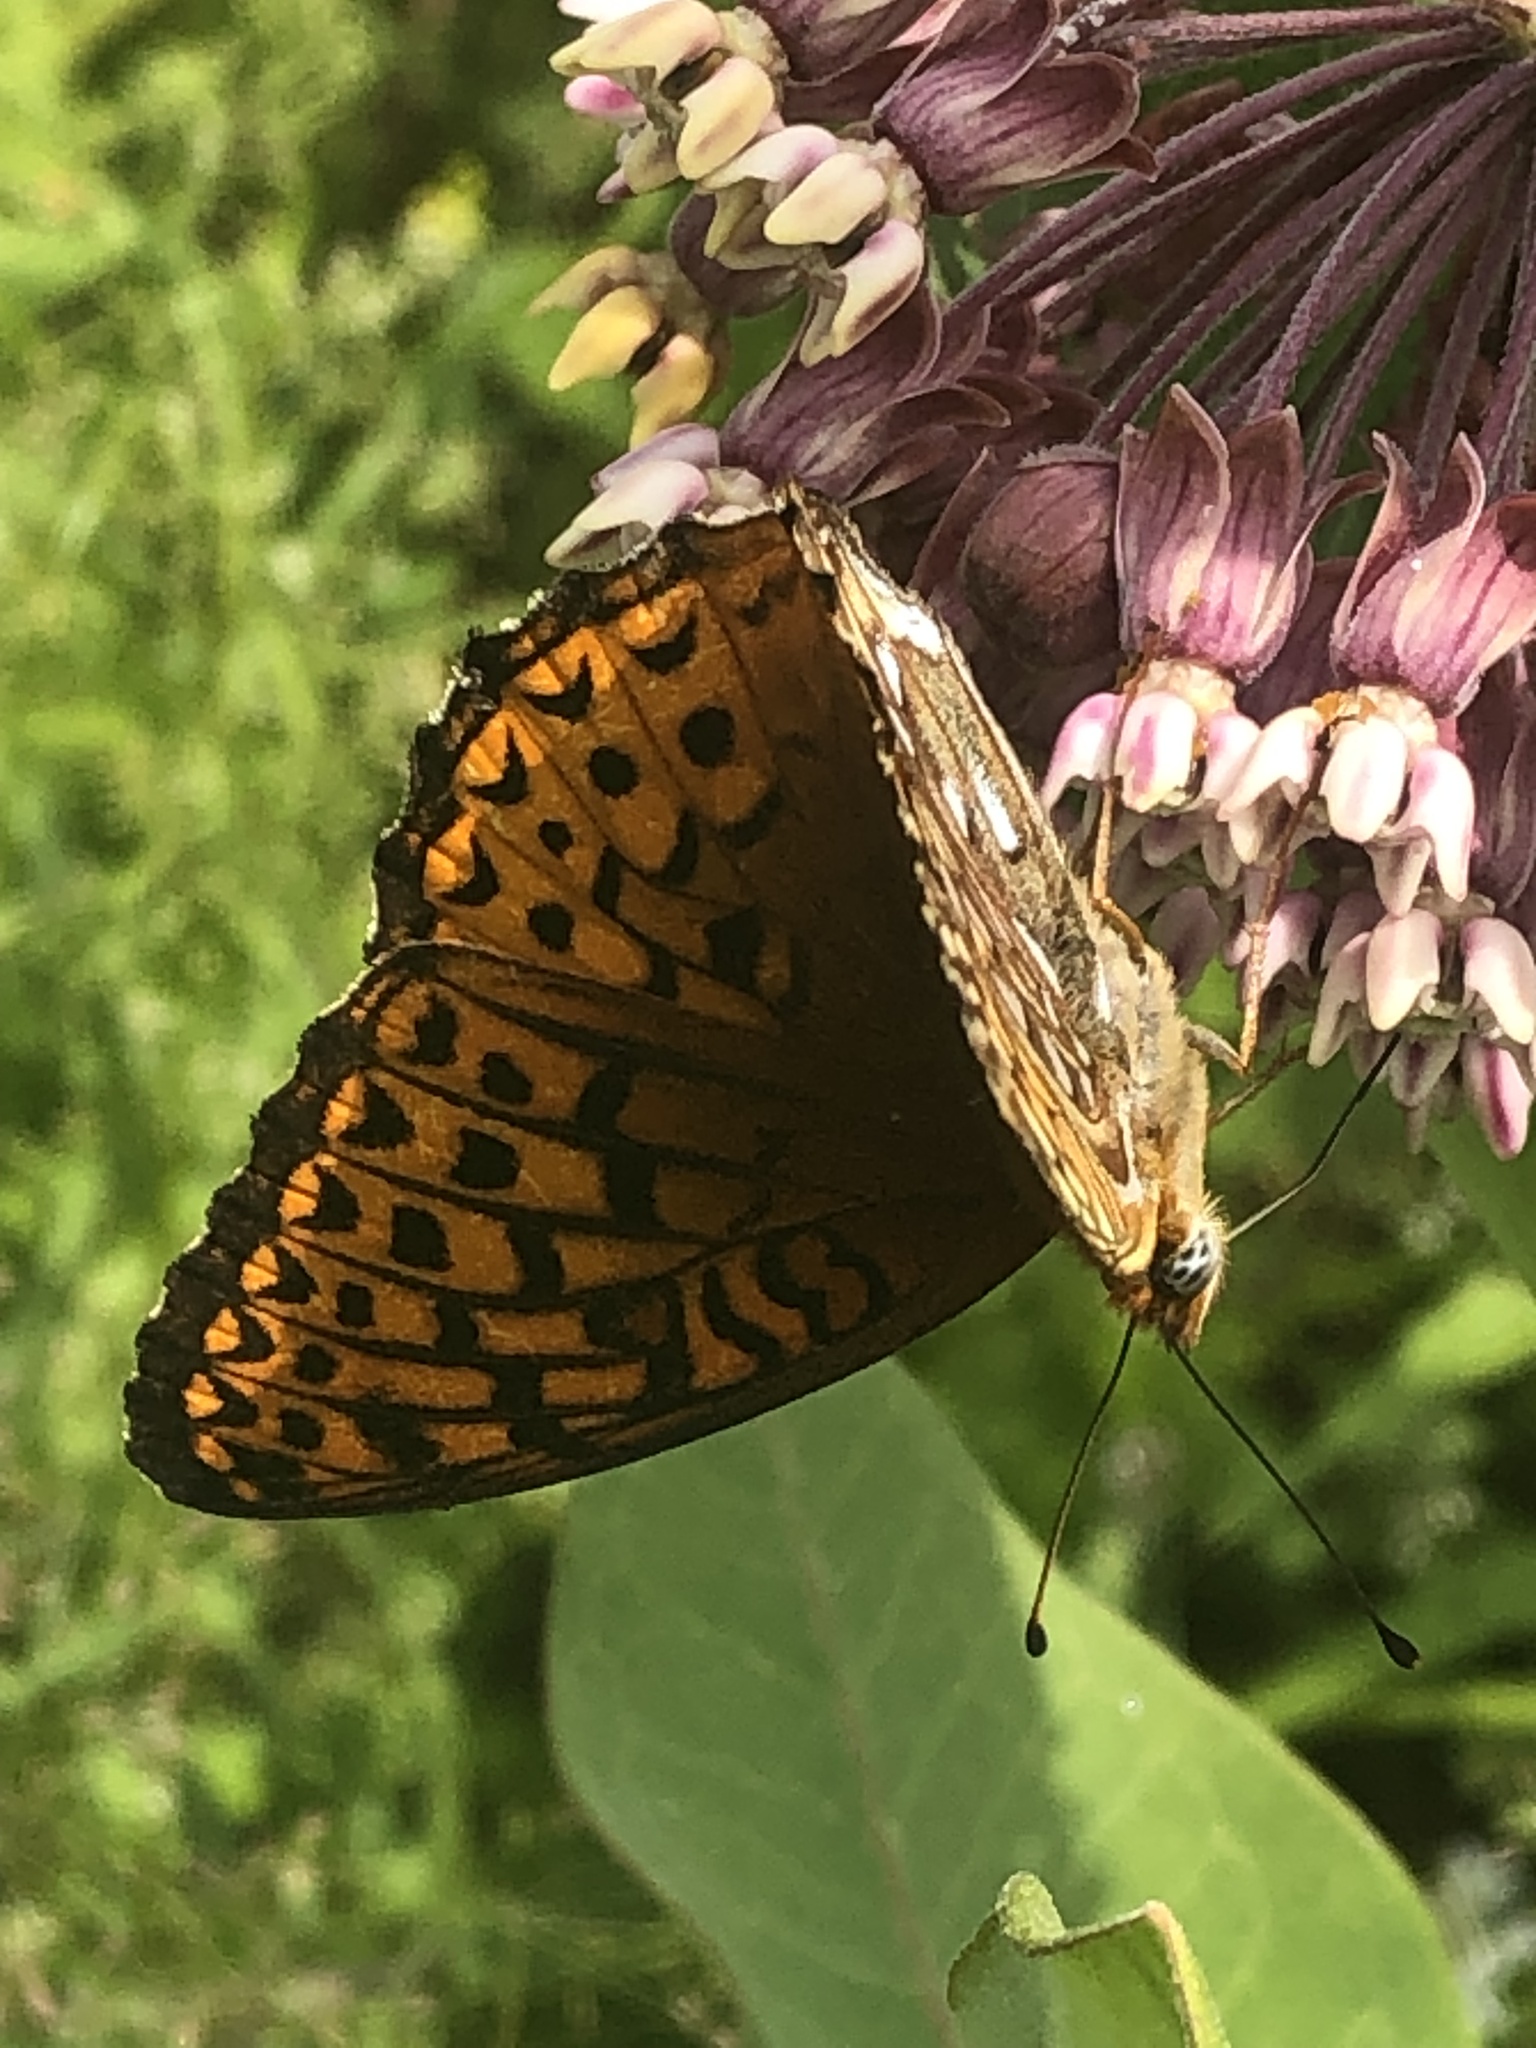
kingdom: Animalia
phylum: Arthropoda
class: Insecta
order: Lepidoptera
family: Nymphalidae
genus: Speyeria
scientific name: Speyeria atlantis
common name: Atlantis fritillary
